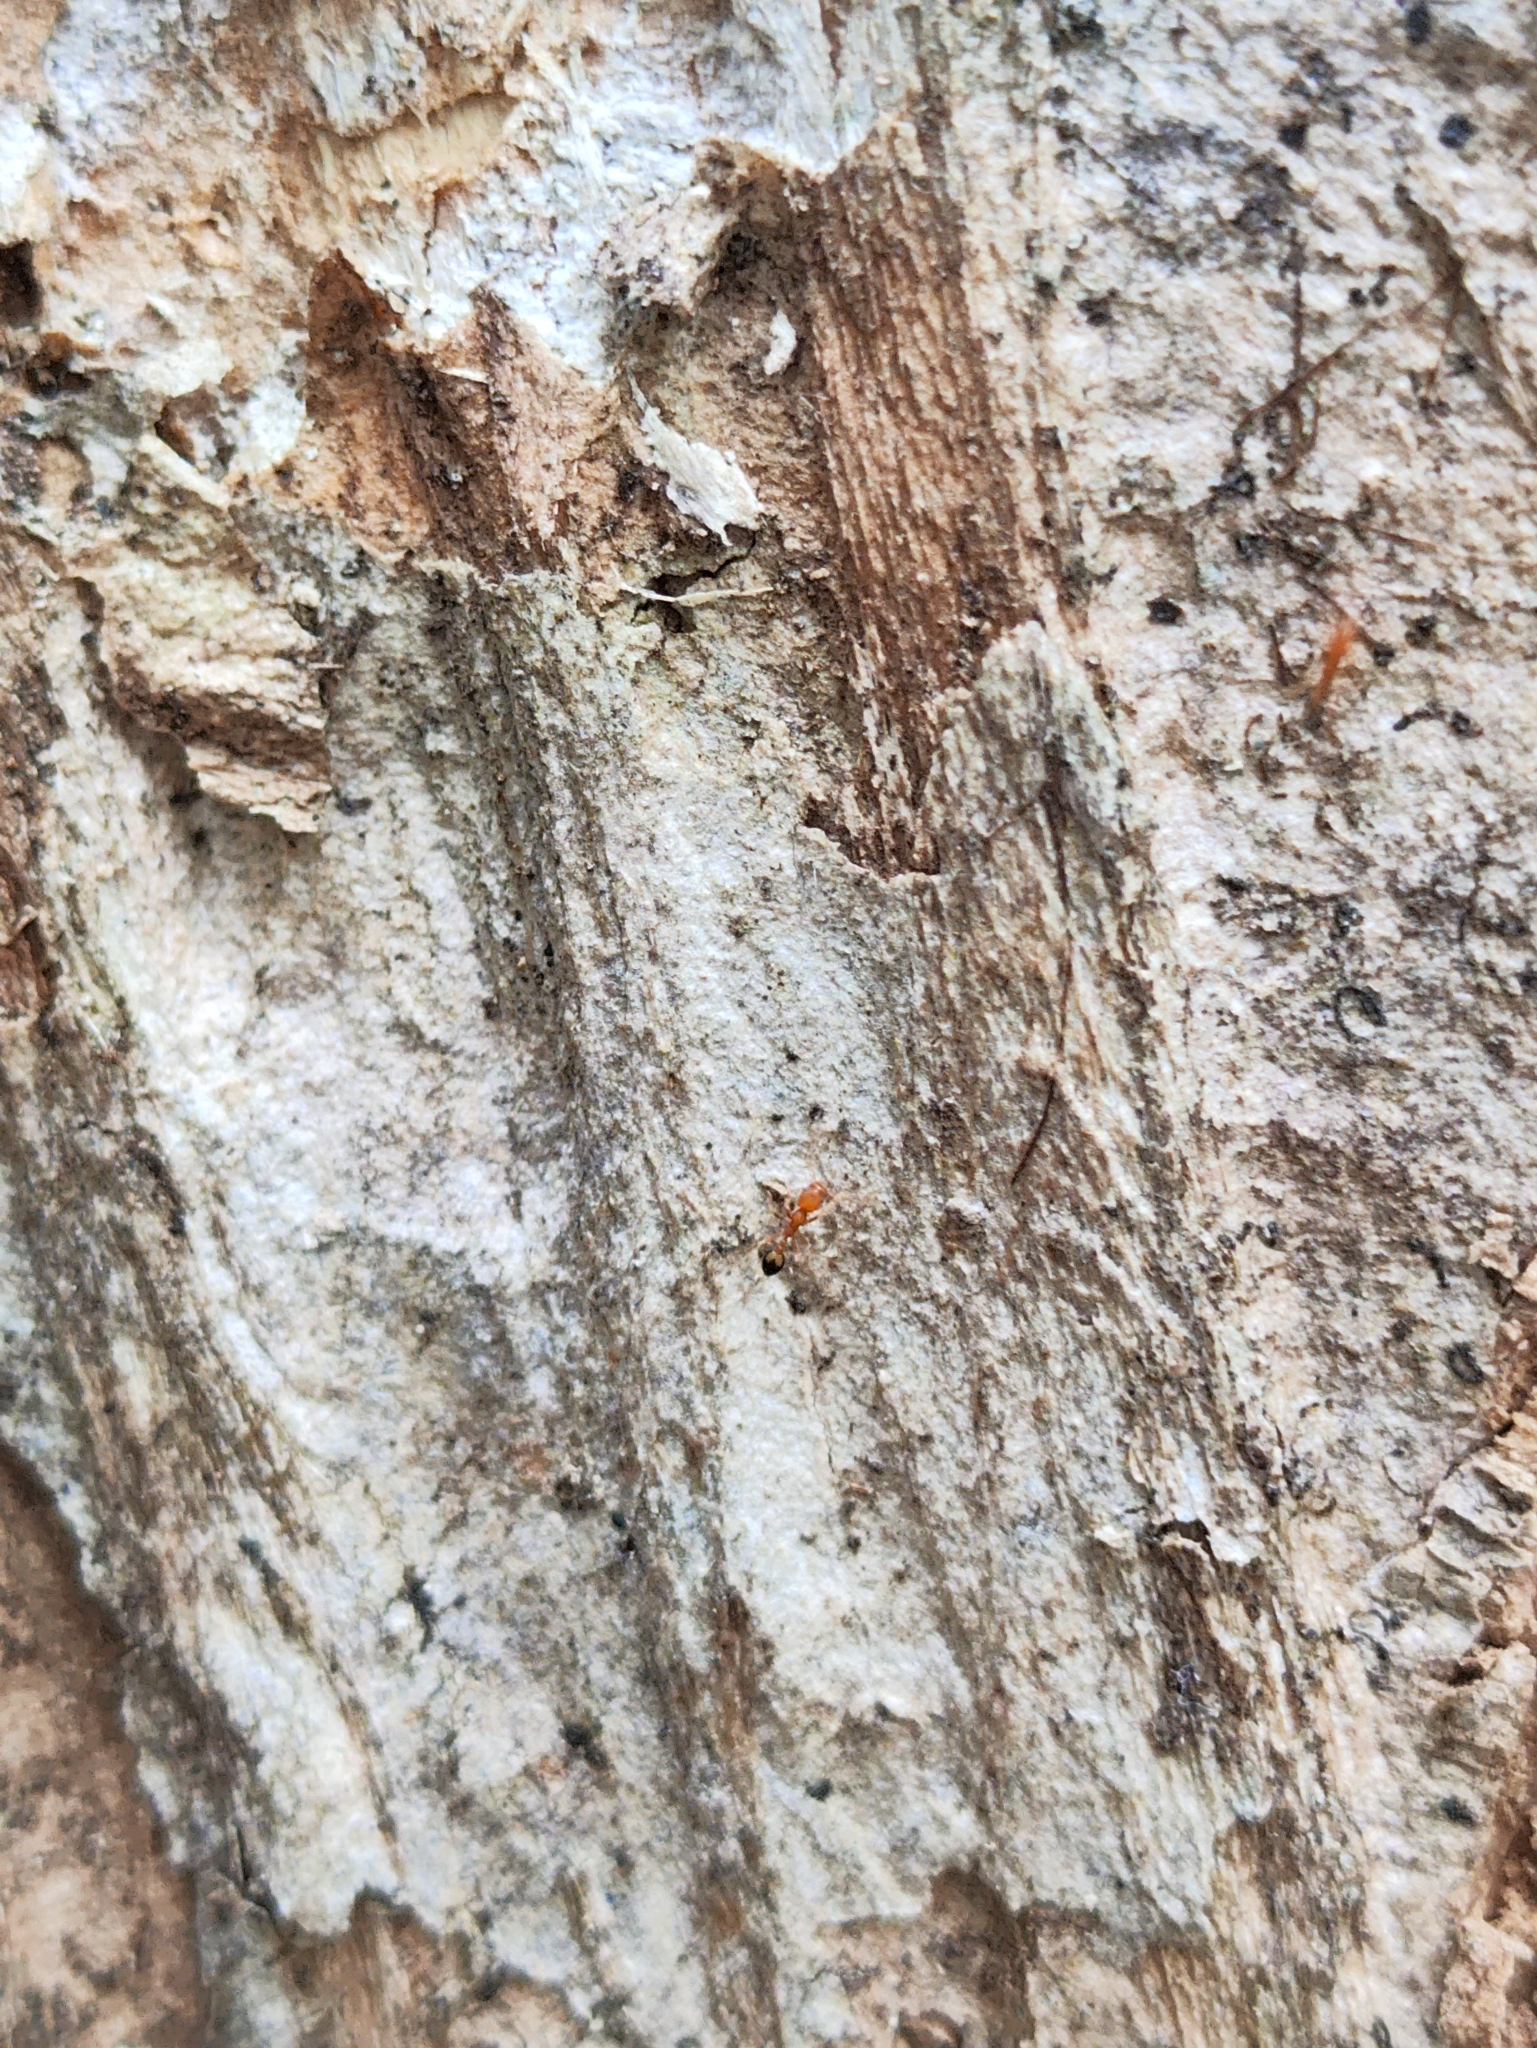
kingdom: Animalia
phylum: Arthropoda
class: Insecta
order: Hymenoptera
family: Formicidae
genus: Monomorium
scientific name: Monomorium sahlbergi
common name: Ant
